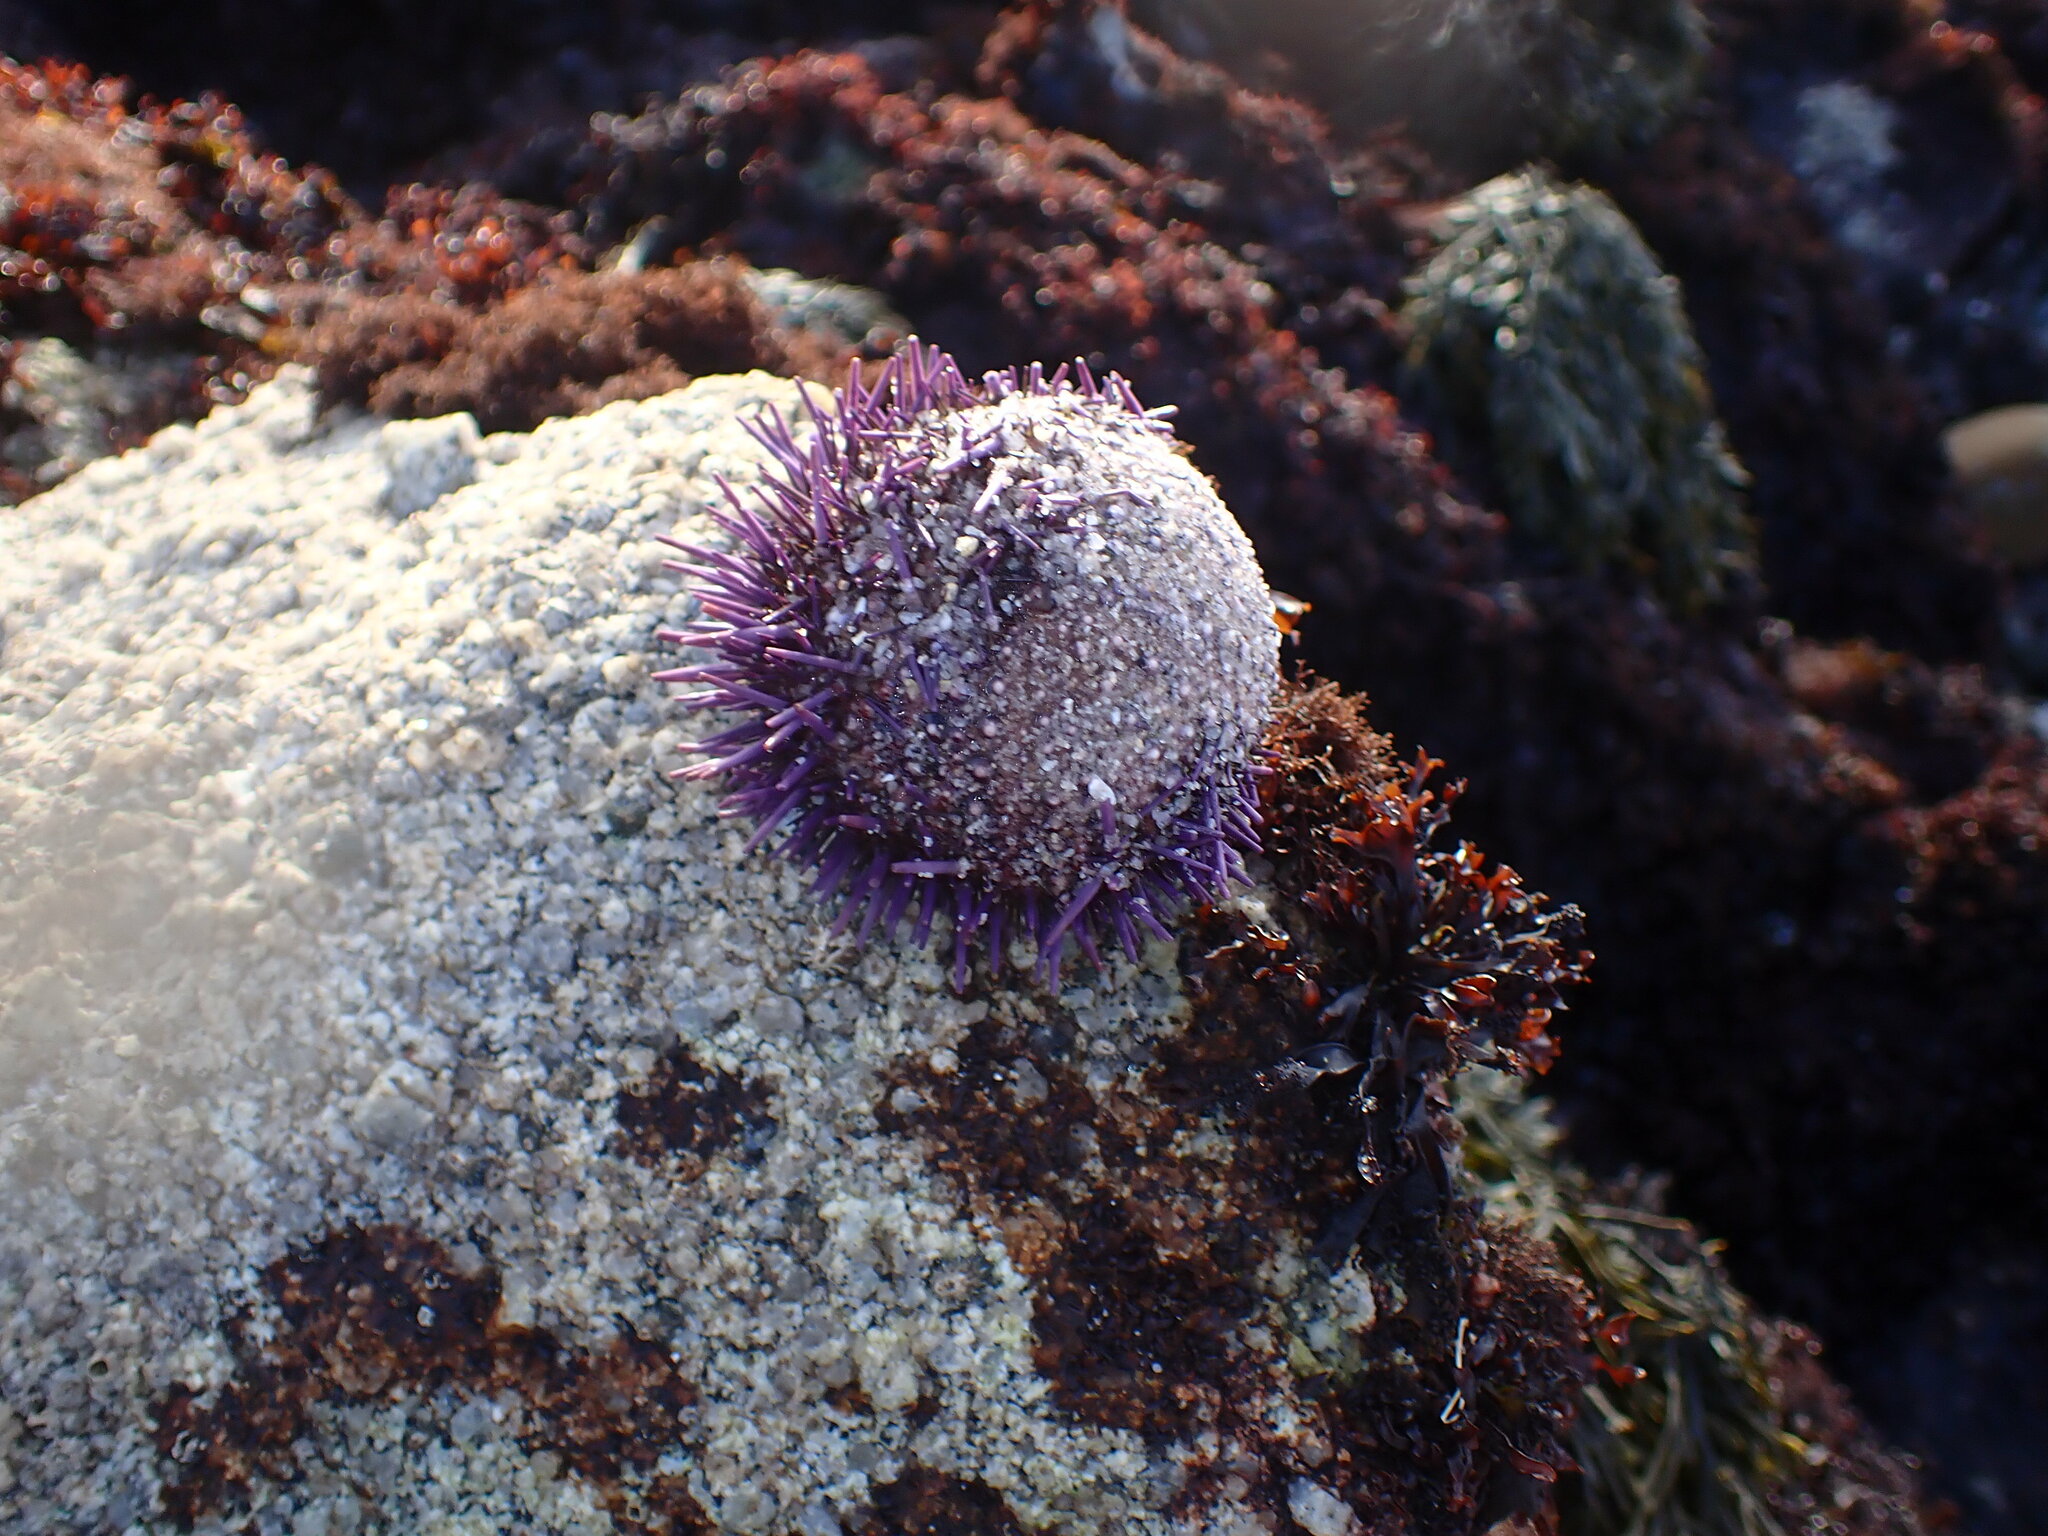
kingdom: Animalia
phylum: Echinodermata
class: Echinoidea
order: Camarodonta
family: Strongylocentrotidae
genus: Strongylocentrotus
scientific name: Strongylocentrotus purpuratus
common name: Purple sea urchin
